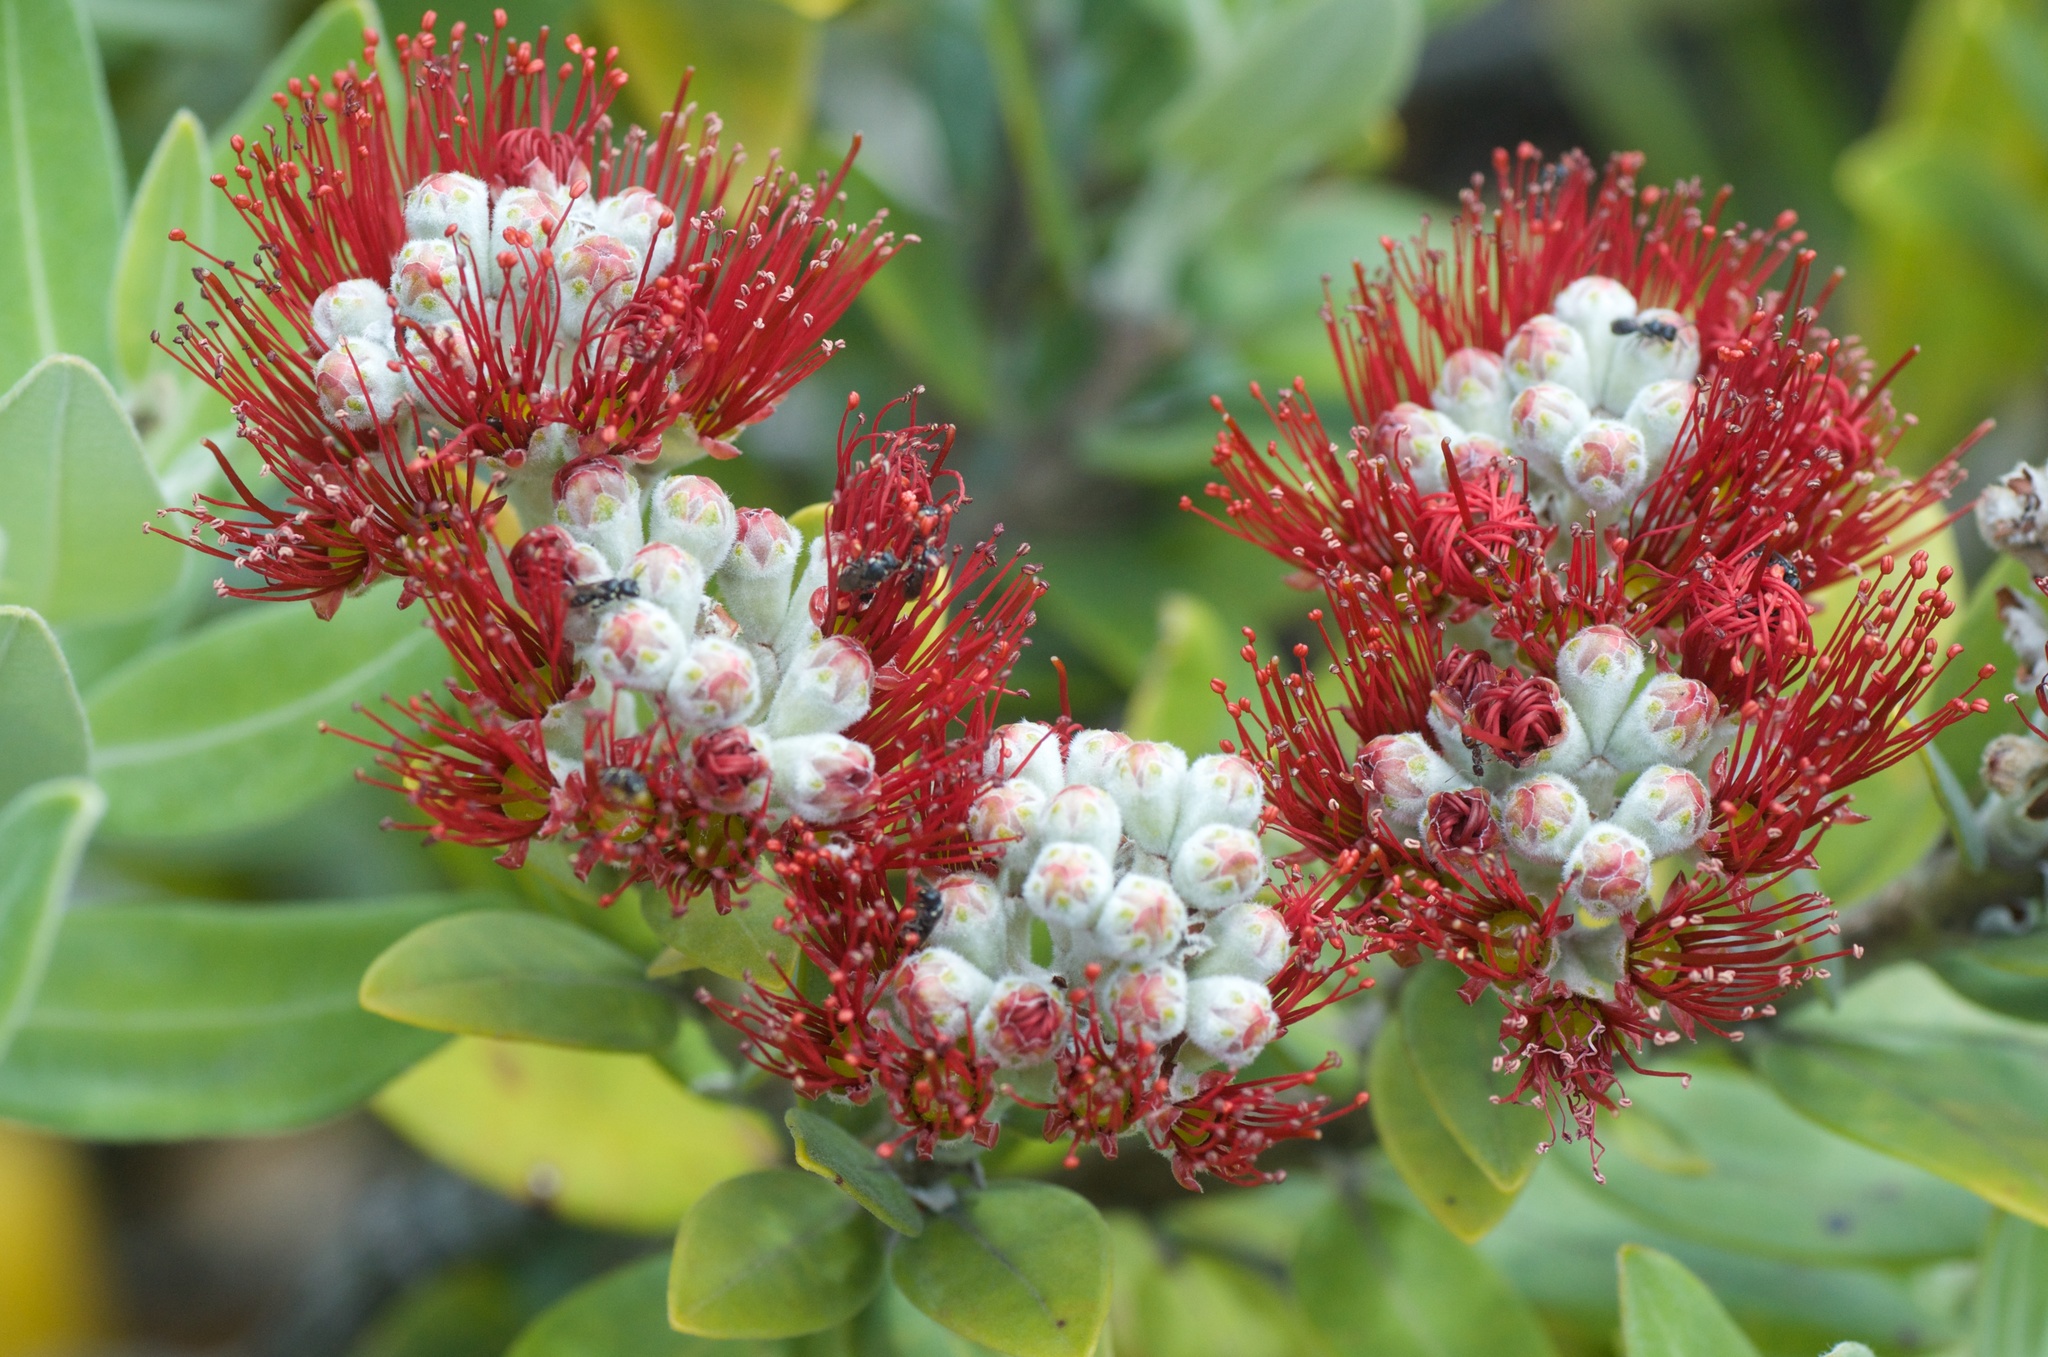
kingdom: Plantae
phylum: Tracheophyta
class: Magnoliopsida
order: Myrtales
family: Myrtaceae
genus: Metrosideros
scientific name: Metrosideros excelsa
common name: New zealand christmastree
